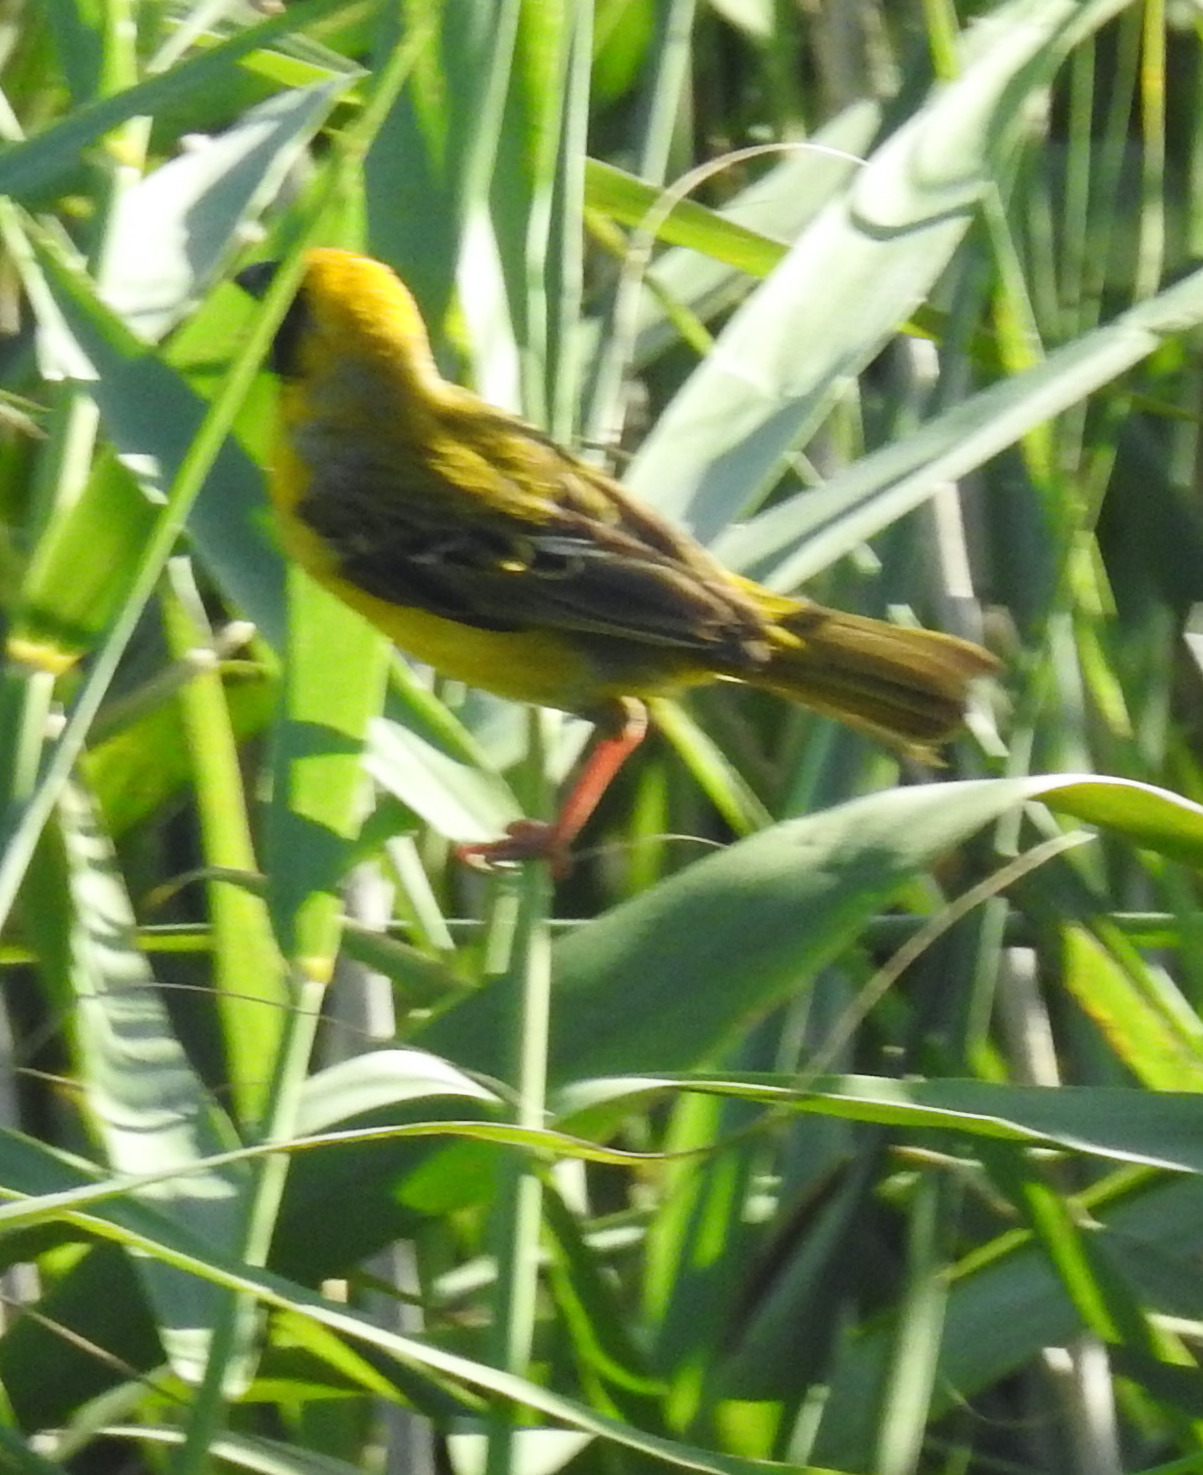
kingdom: Animalia
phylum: Chordata
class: Aves
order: Passeriformes
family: Ploceidae
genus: Ploceus
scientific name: Ploceus velatus
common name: Southern masked weaver
